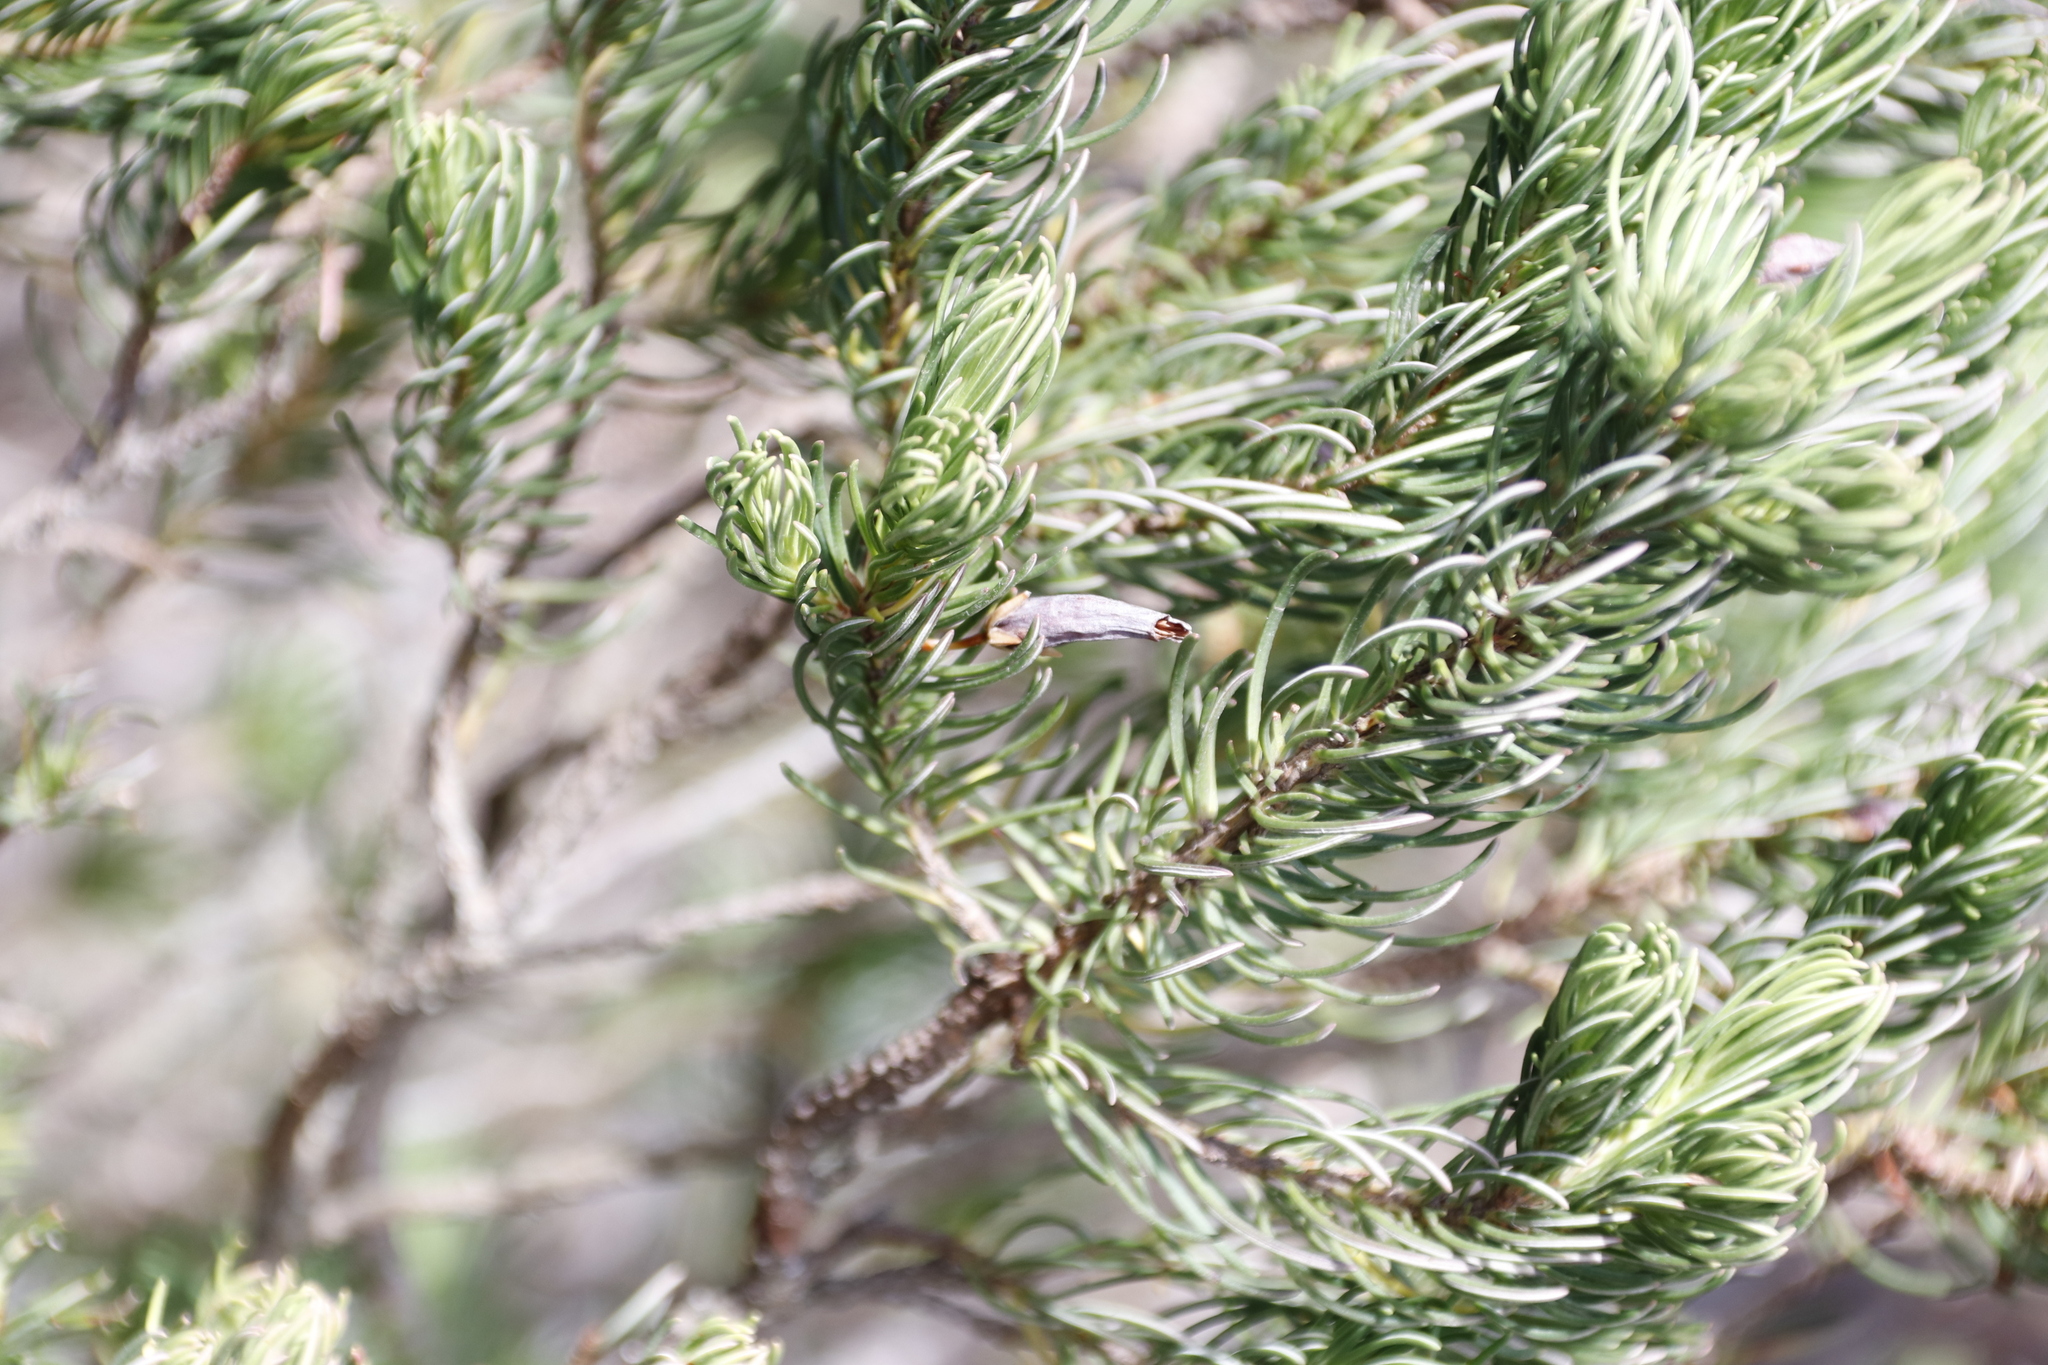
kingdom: Plantae
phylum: Tracheophyta
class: Magnoliopsida
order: Ericales
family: Ericaceae
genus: Erica
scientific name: Erica plukenetii
